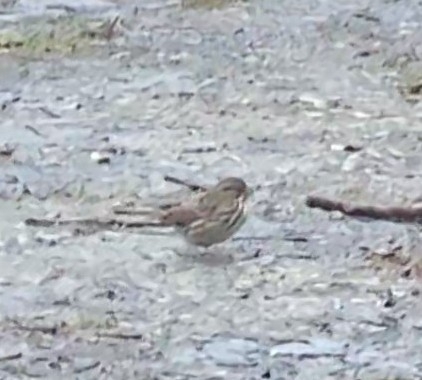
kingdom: Animalia
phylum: Chordata
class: Aves
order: Passeriformes
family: Passerellidae
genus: Melospiza
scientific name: Melospiza melodia
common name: Song sparrow
